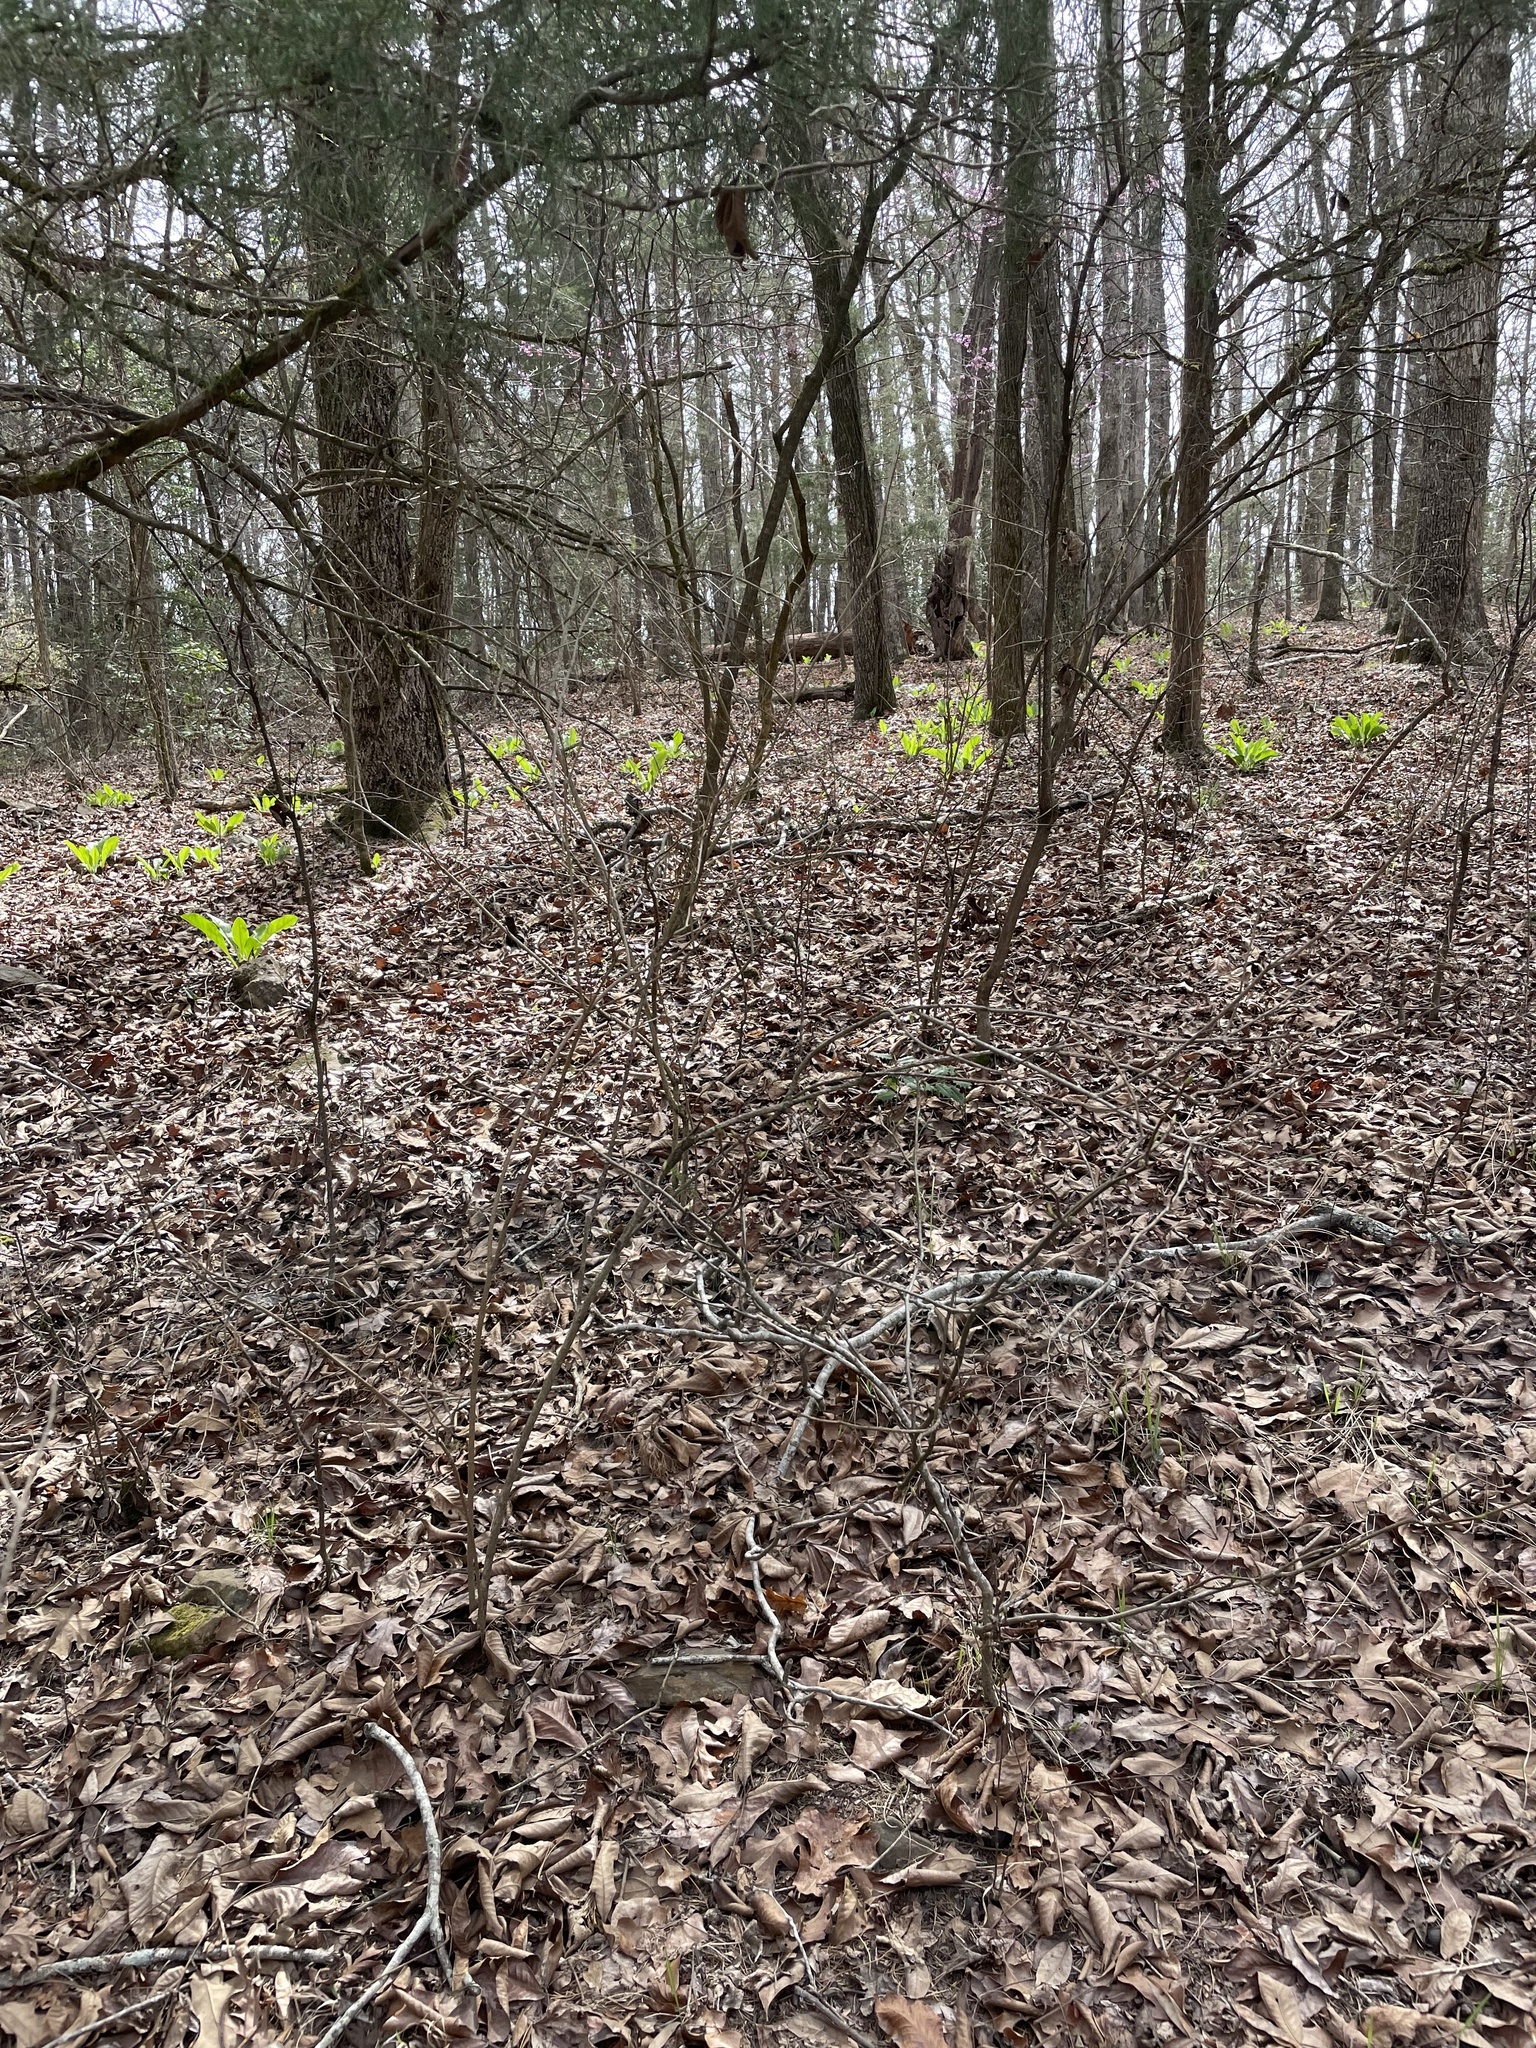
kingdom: Plantae
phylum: Tracheophyta
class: Magnoliopsida
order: Boraginales
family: Boraginaceae
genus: Andersonglossum
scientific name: Andersonglossum virginianum
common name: Wild comfrey
